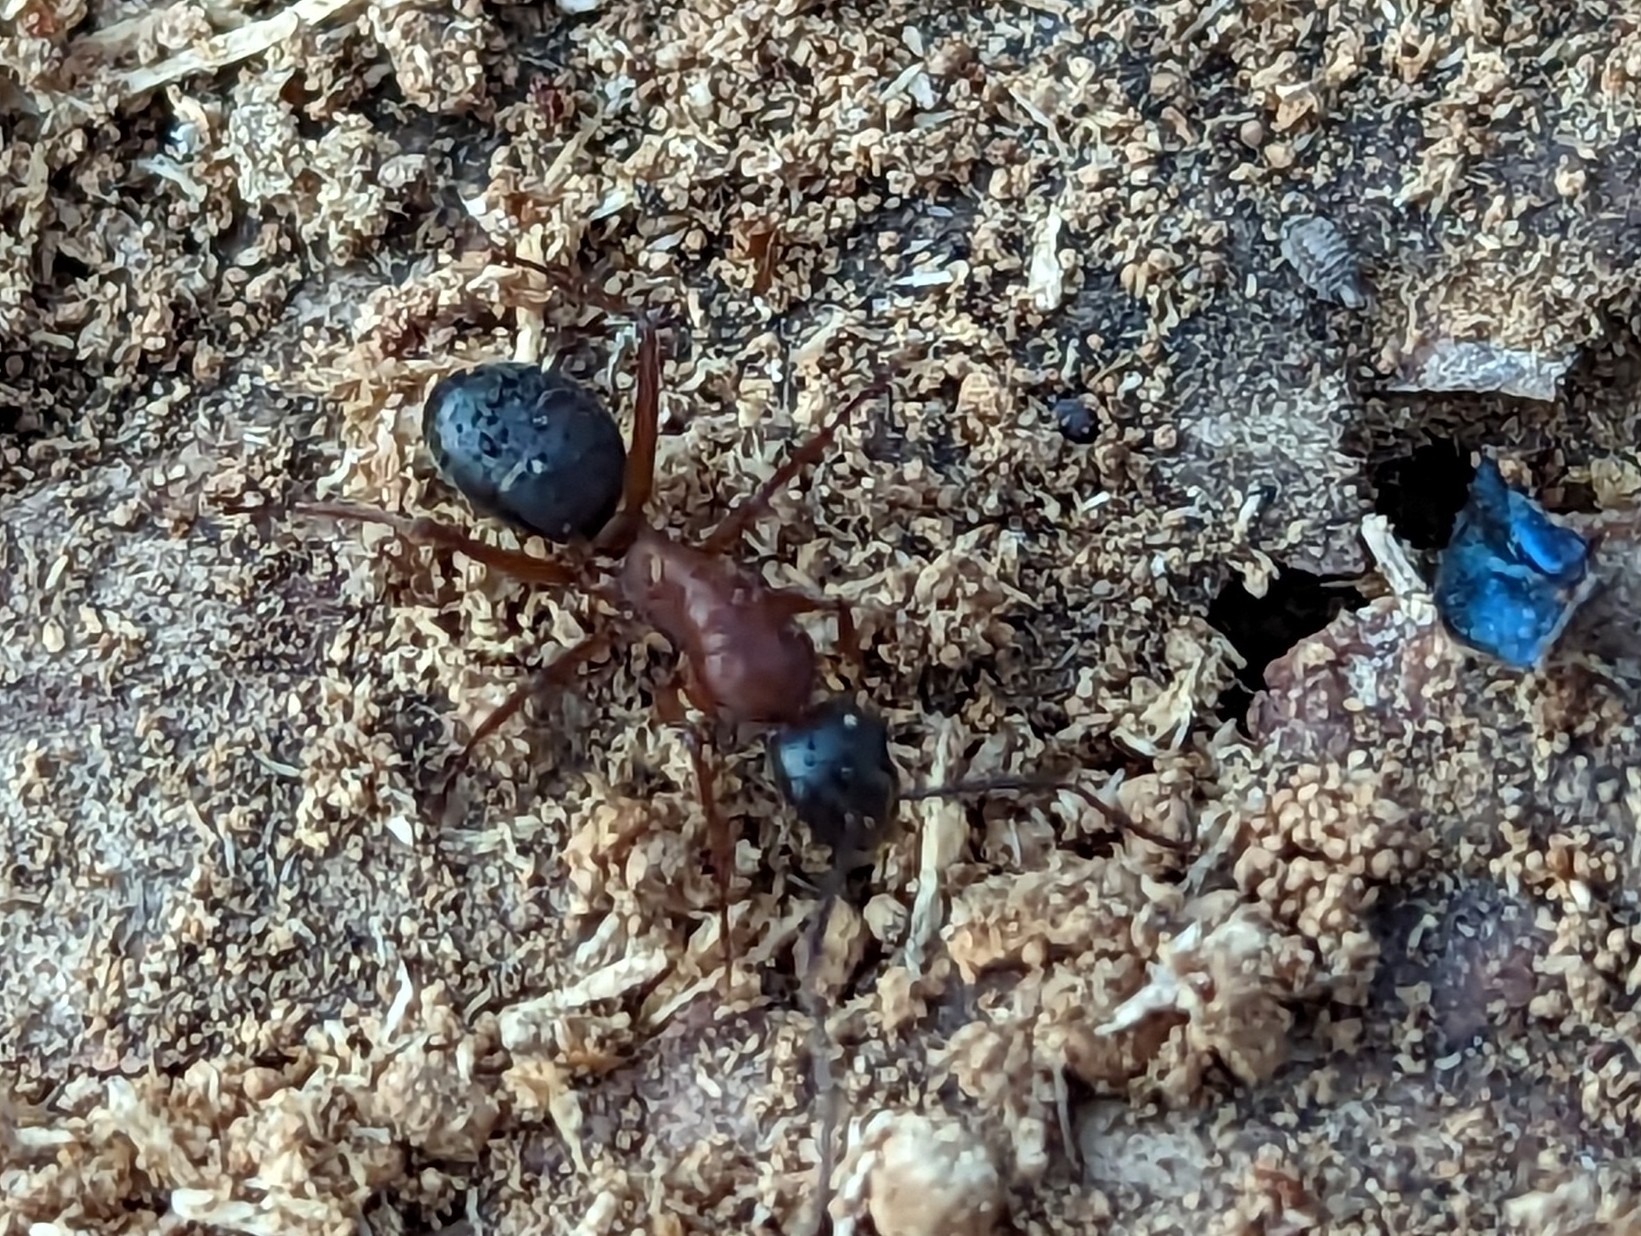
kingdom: Animalia
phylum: Arthropoda
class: Insecta
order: Hymenoptera
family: Formicidae
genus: Camponotus
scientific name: Camponotus vicinus
